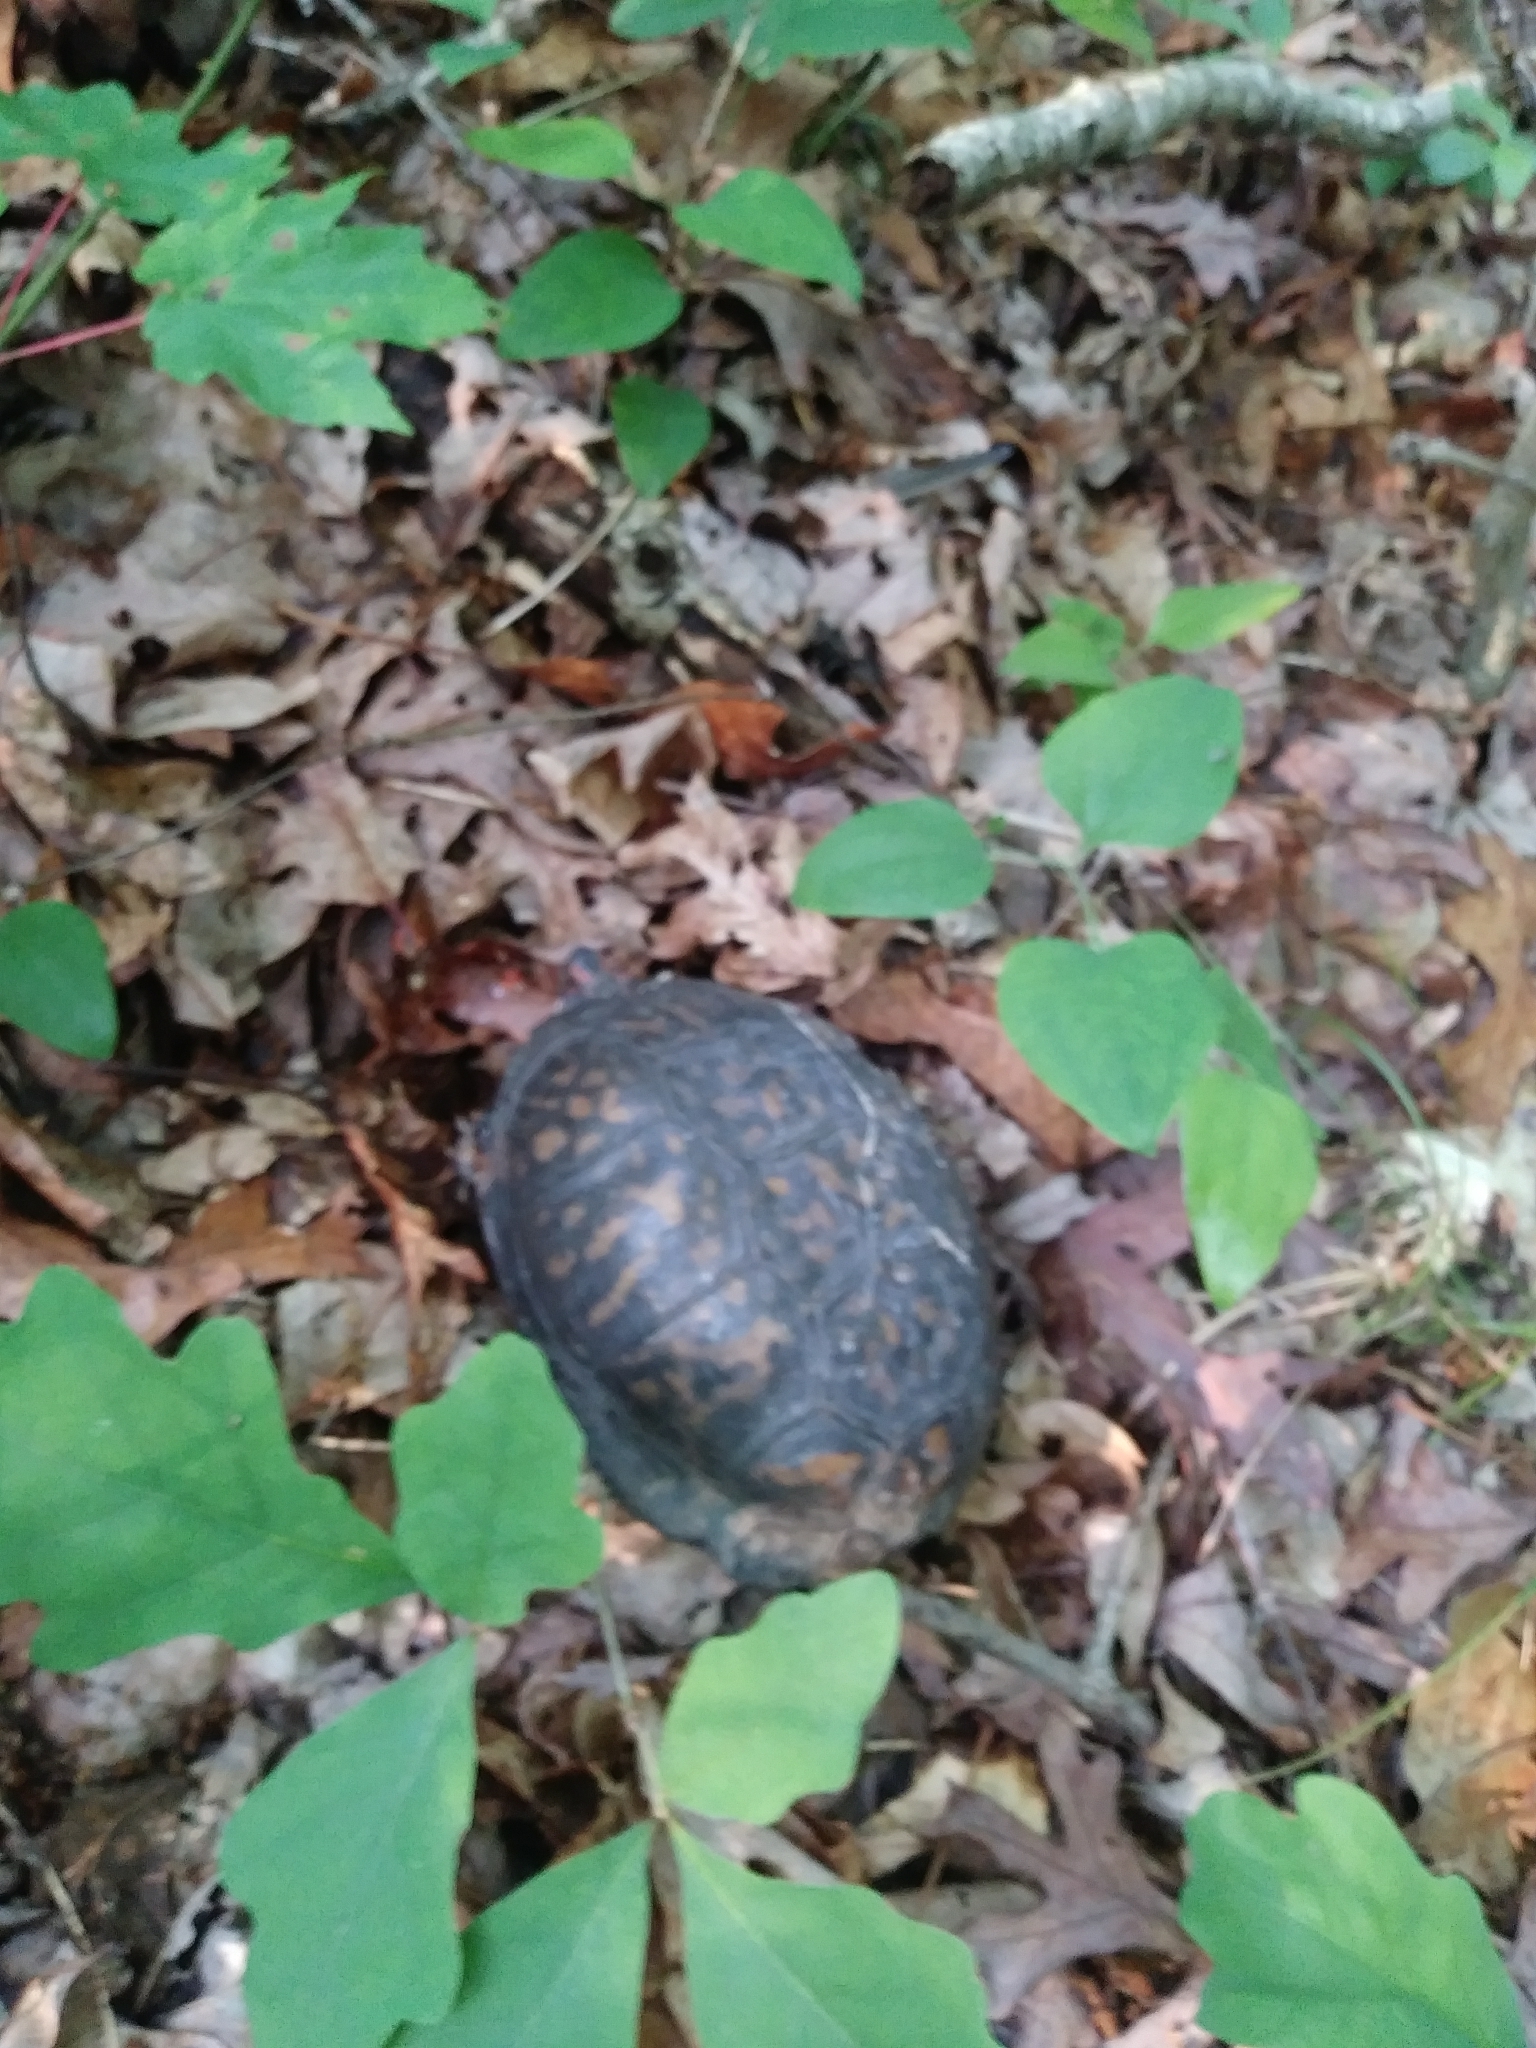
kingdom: Animalia
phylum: Chordata
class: Testudines
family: Emydidae
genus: Terrapene
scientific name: Terrapene carolina
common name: Common box turtle
